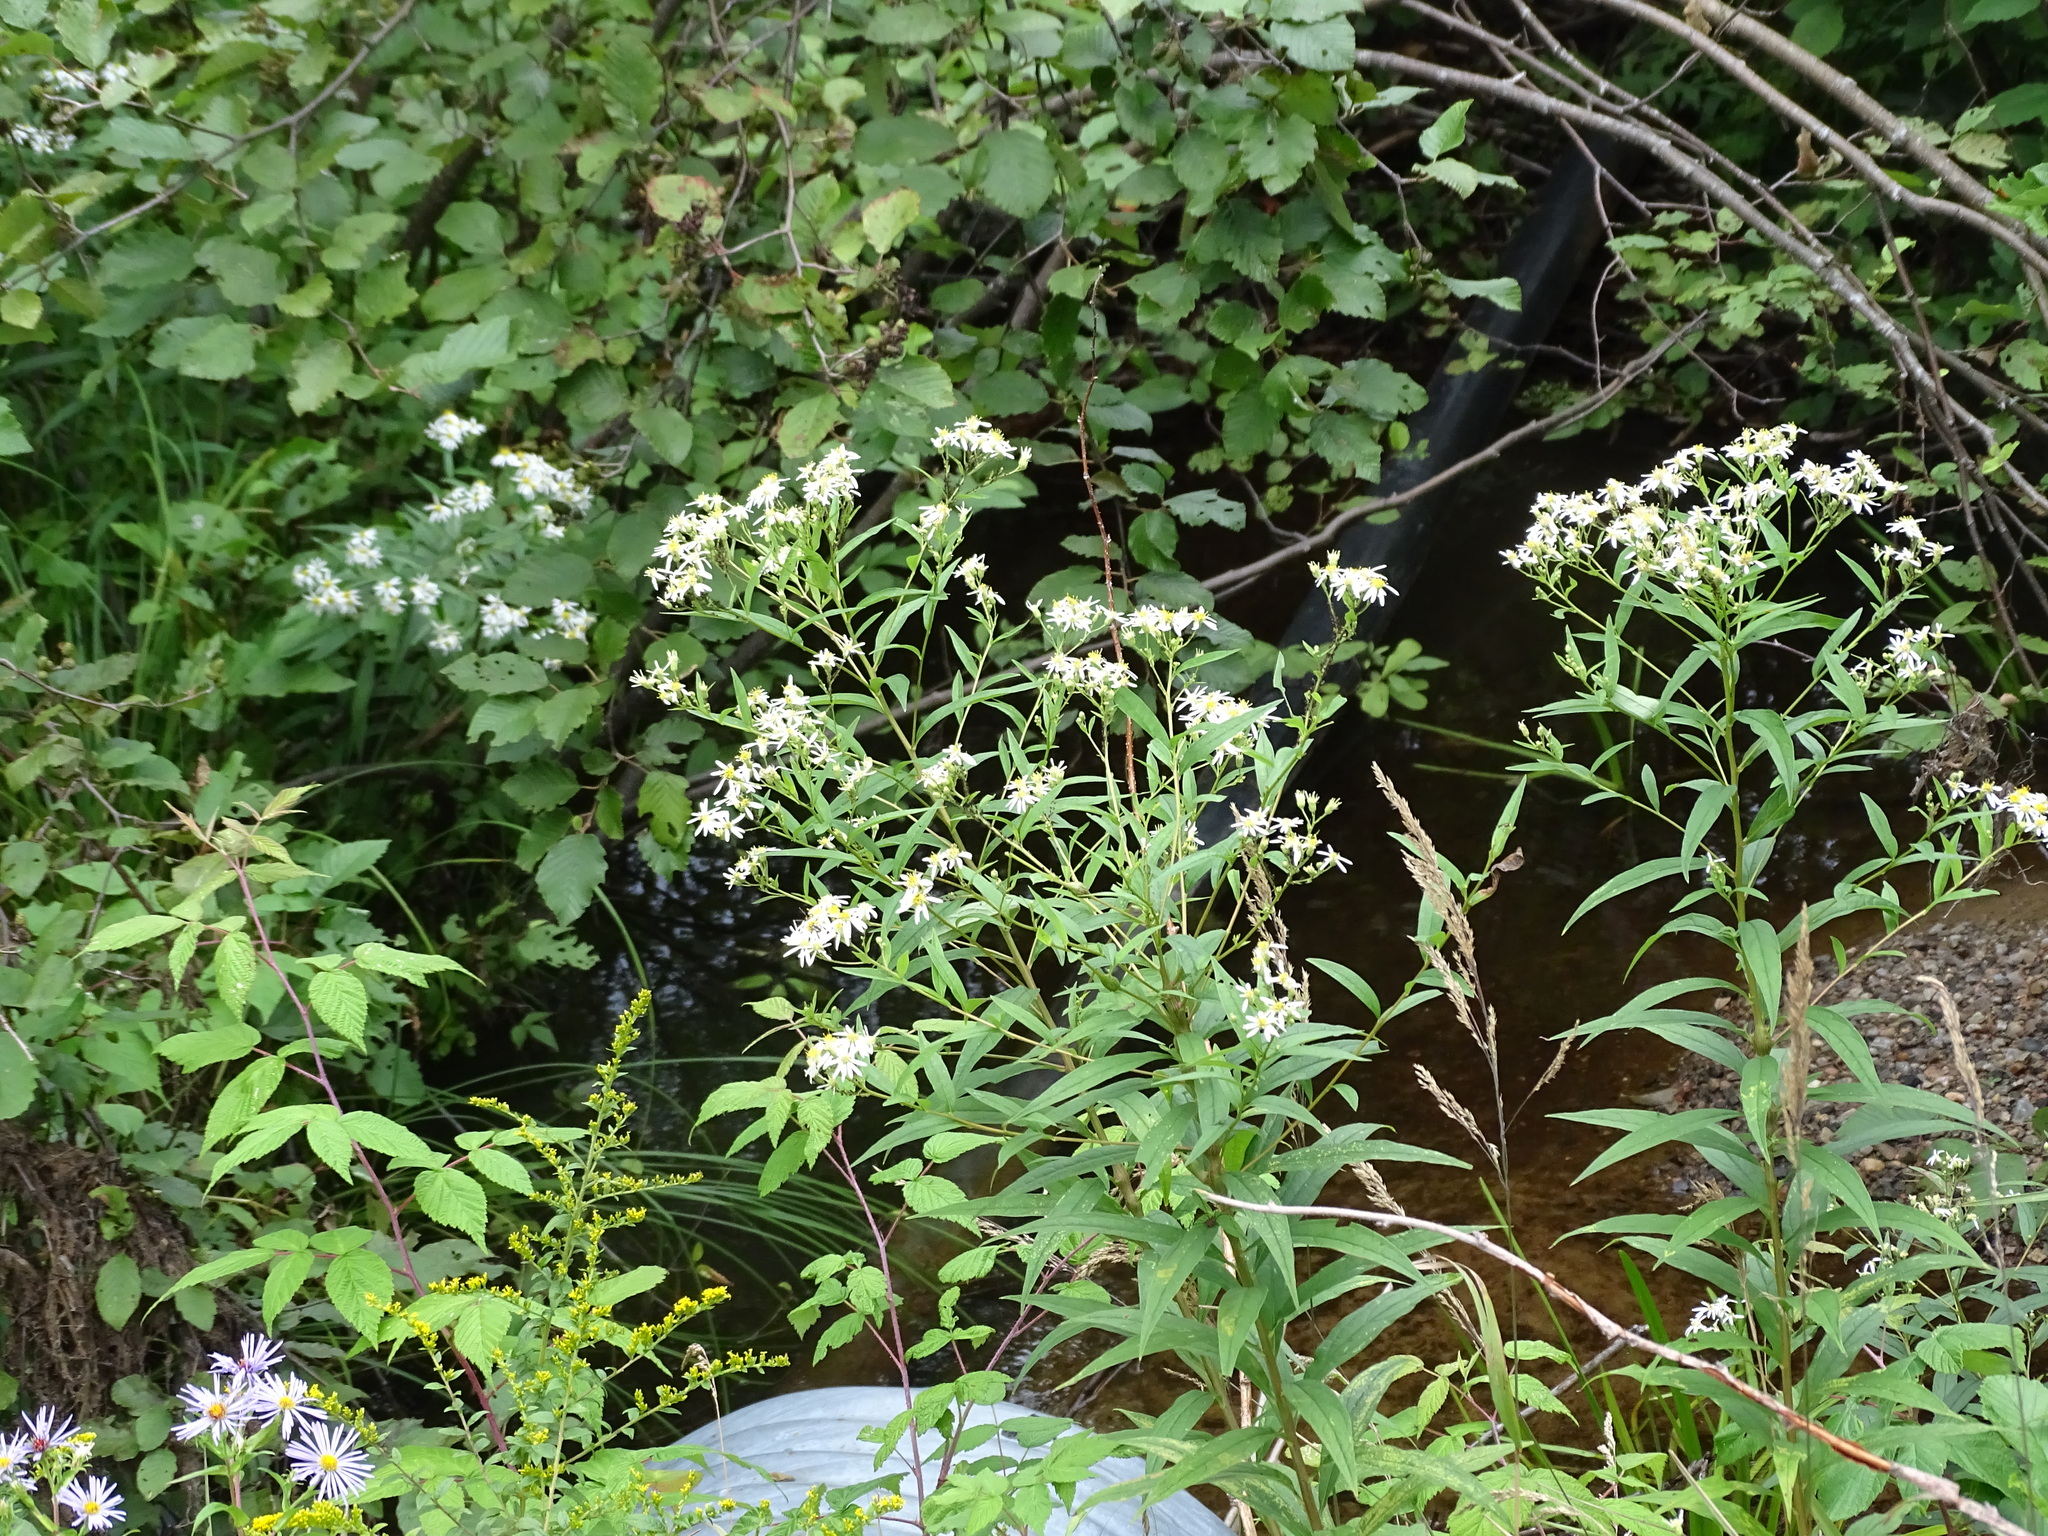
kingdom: Plantae
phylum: Tracheophyta
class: Magnoliopsida
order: Asterales
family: Asteraceae
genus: Doellingeria
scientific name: Doellingeria umbellata
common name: Flat-top white aster
